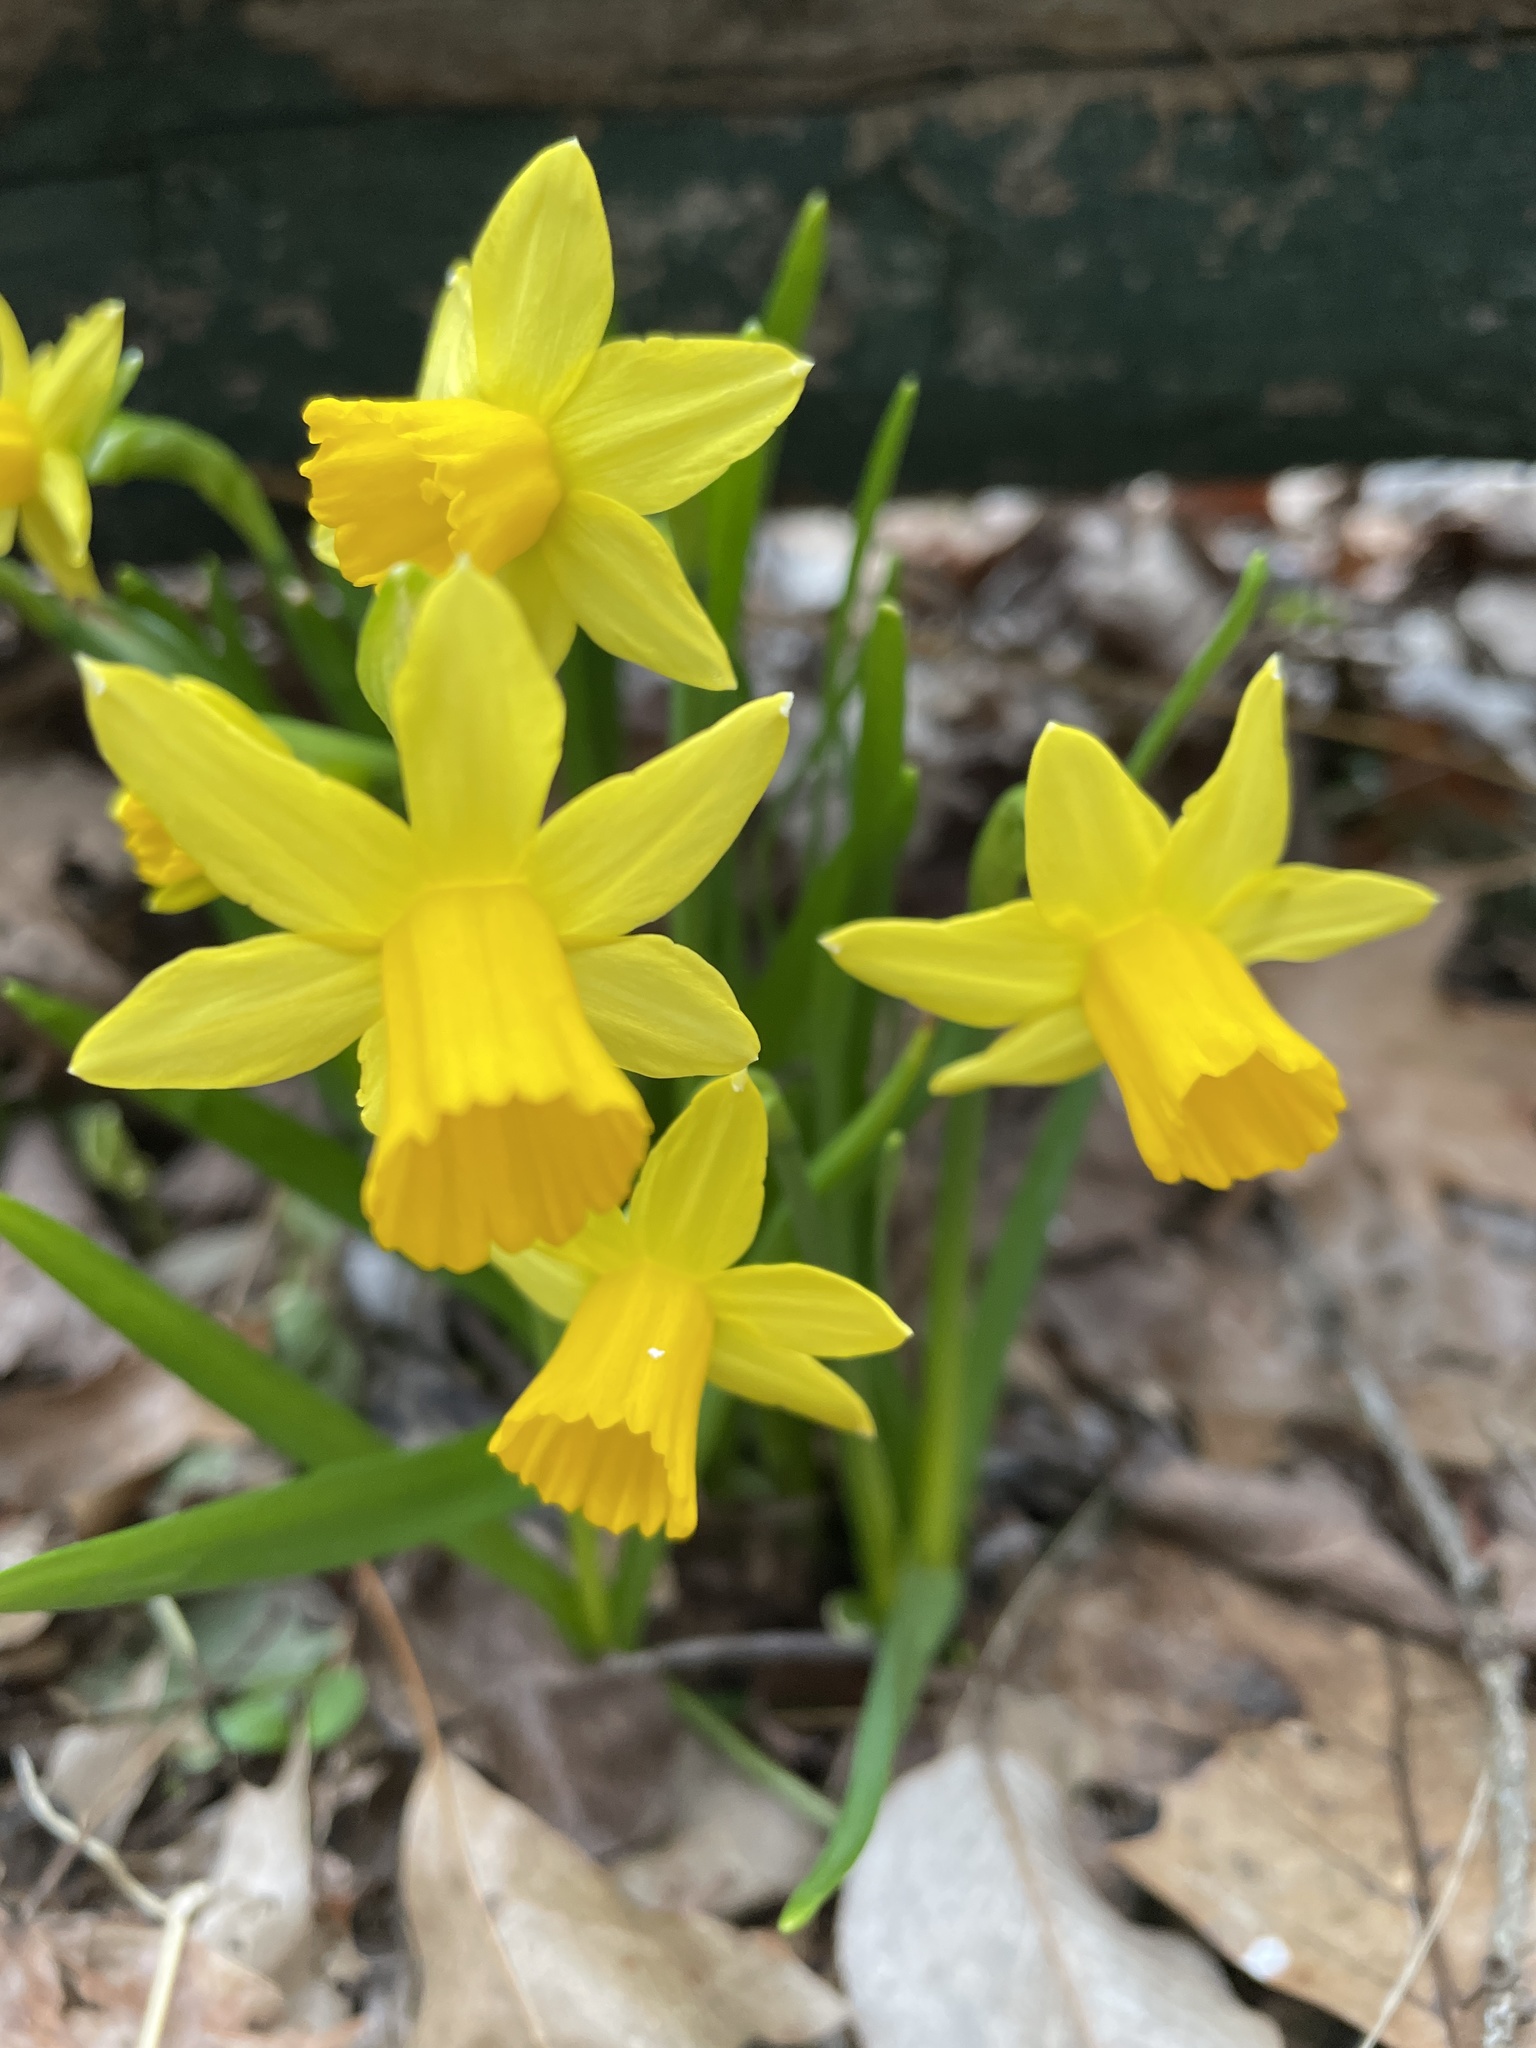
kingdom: Plantae
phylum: Tracheophyta
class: Liliopsida
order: Asparagales
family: Amaryllidaceae
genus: Narcissus
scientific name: Narcissus cyclazetta
